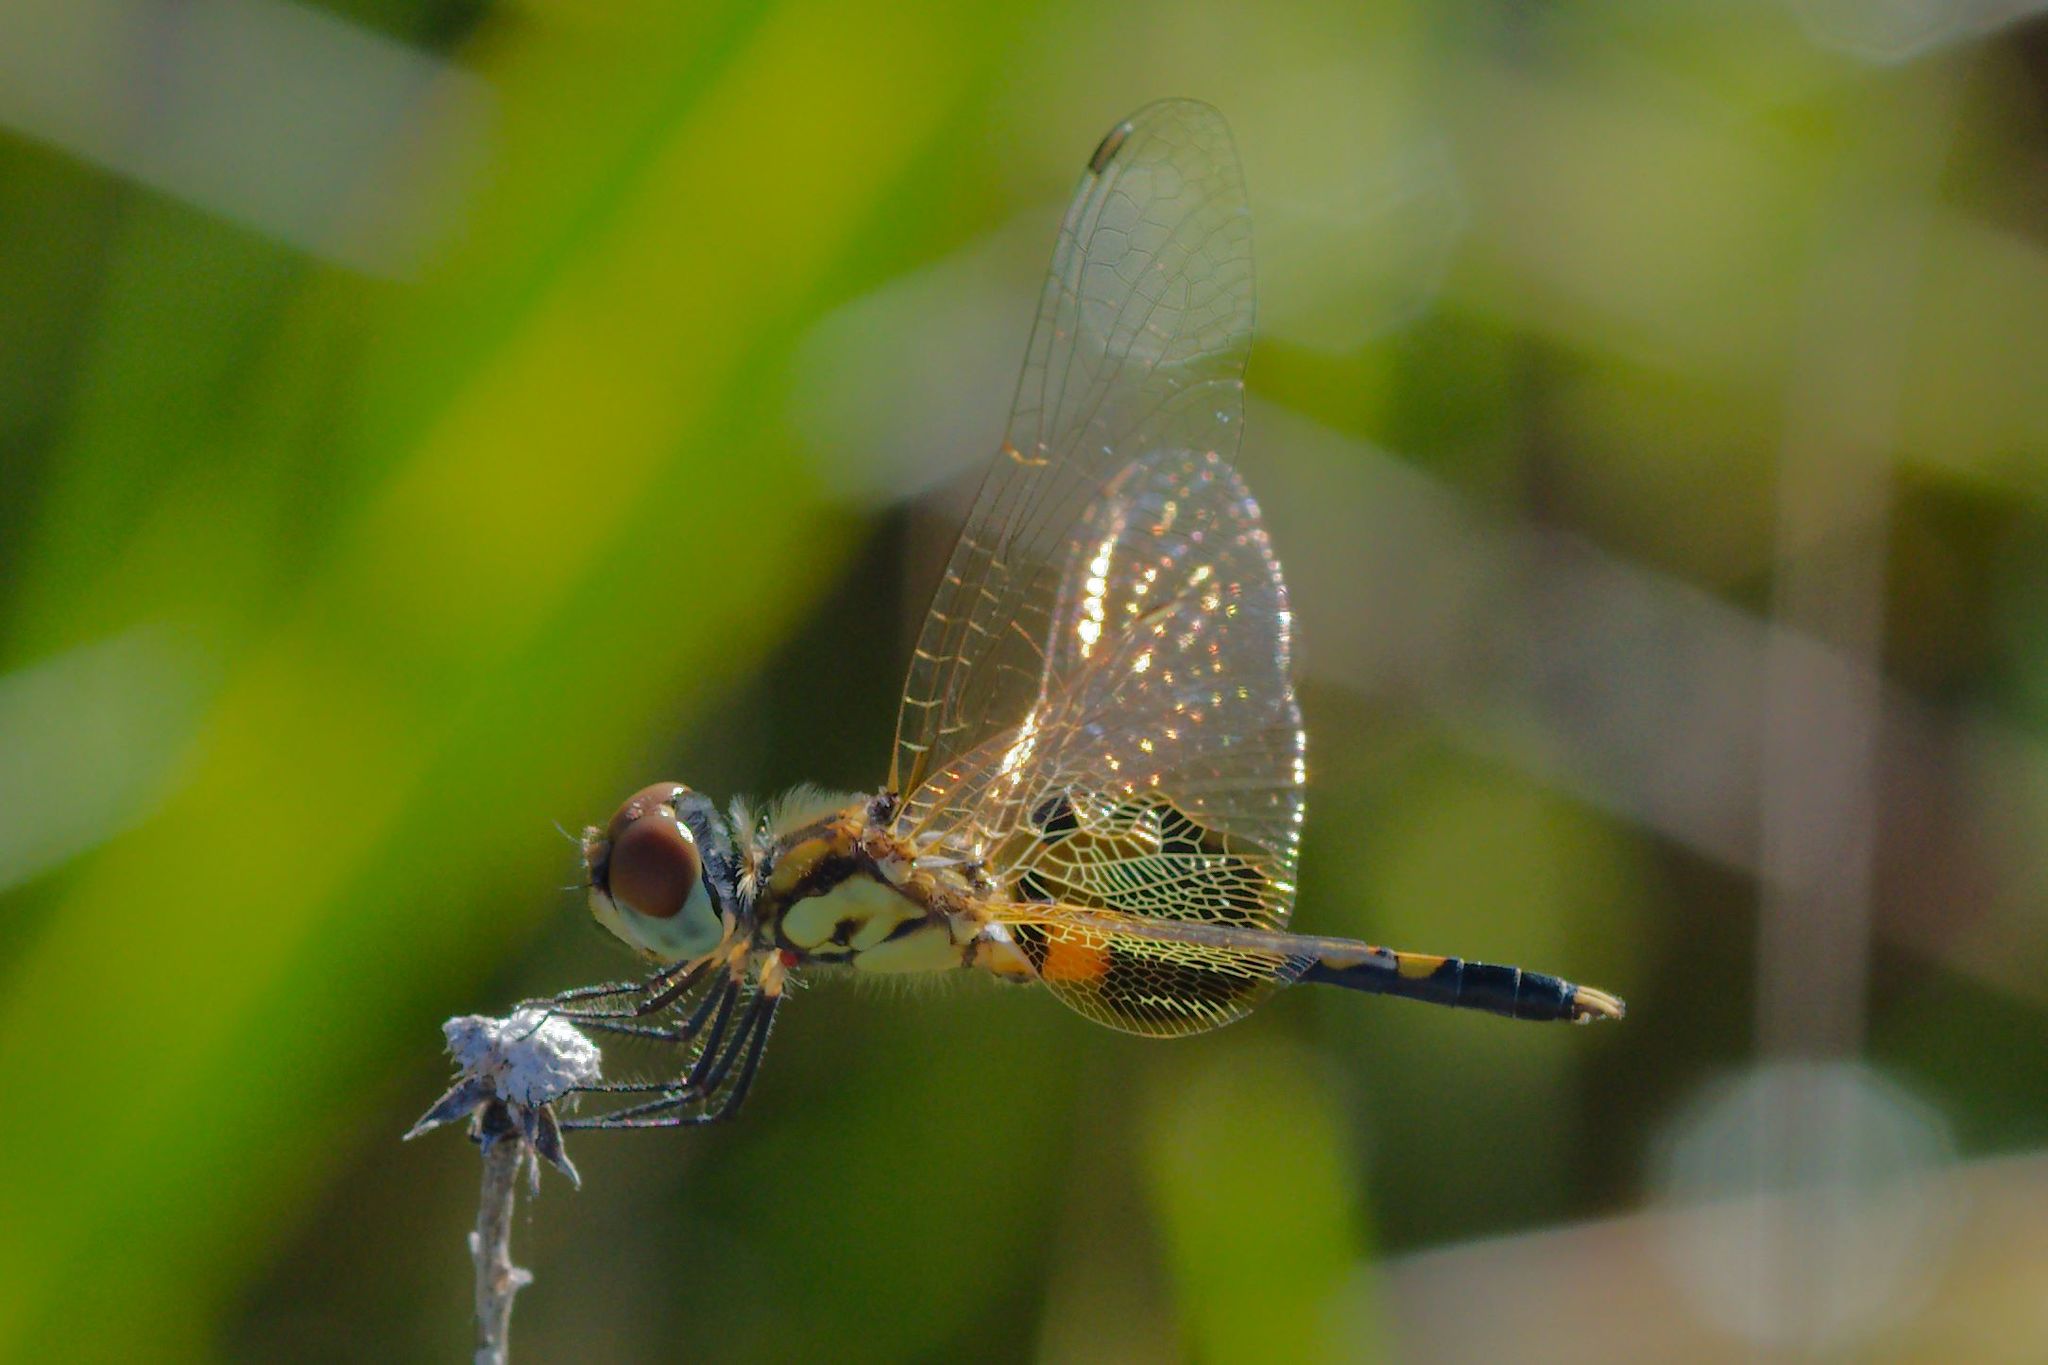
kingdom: Animalia
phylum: Arthropoda
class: Insecta
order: Odonata
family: Libellulidae
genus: Celithemis
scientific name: Celithemis amanda
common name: Amanda's pennant
